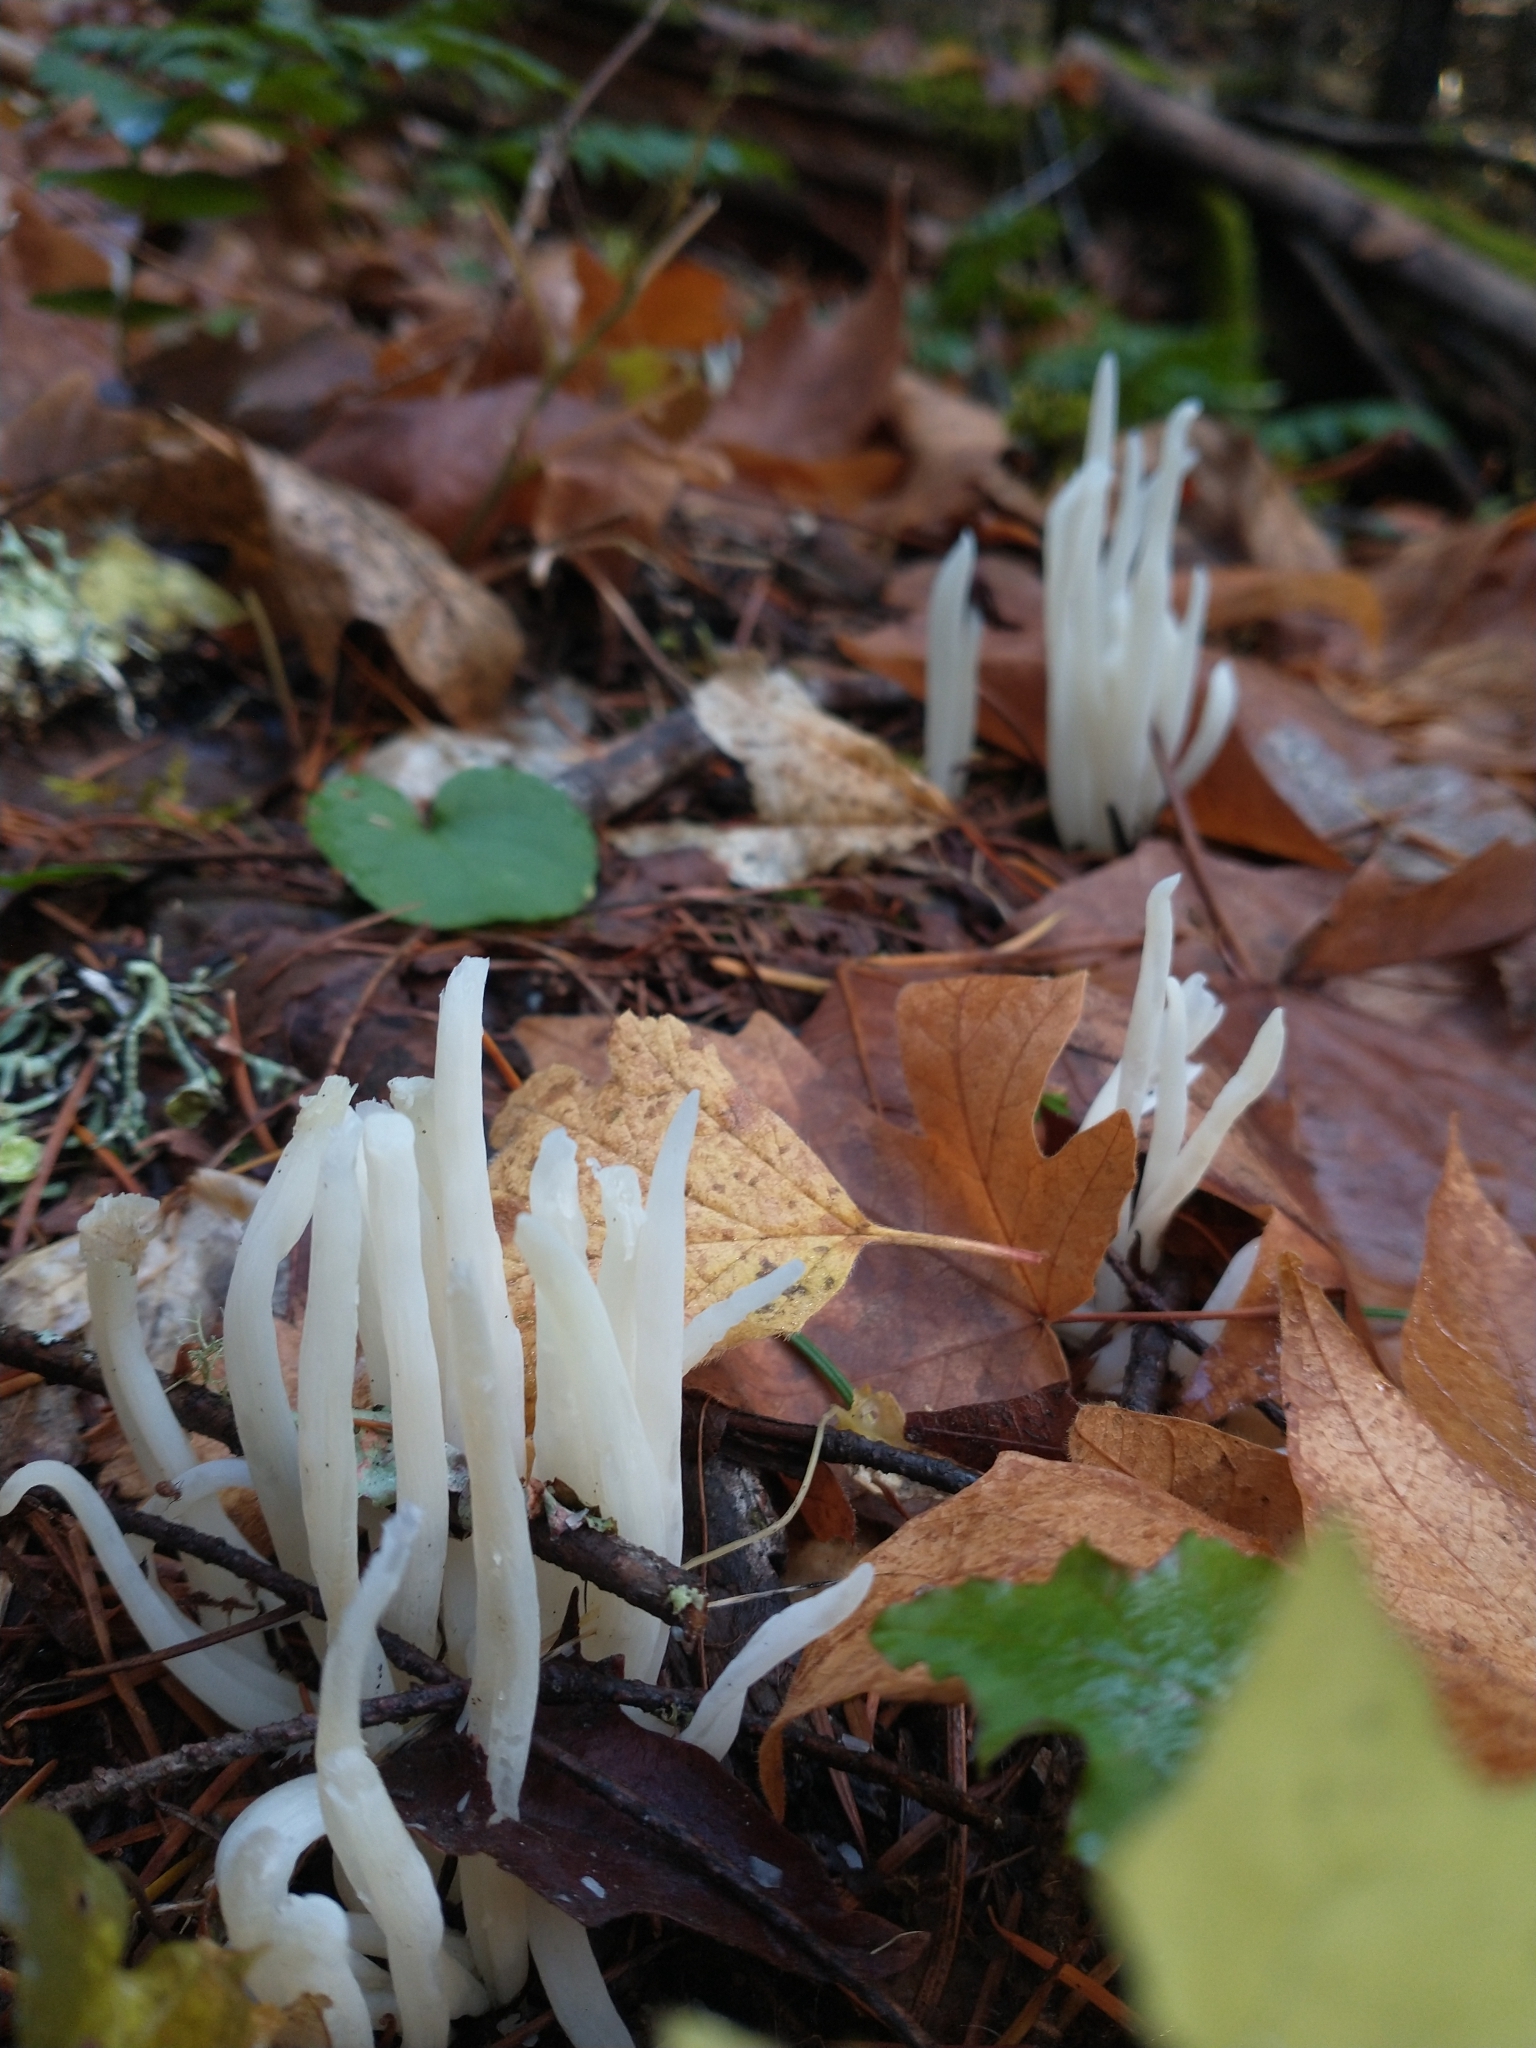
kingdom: Fungi
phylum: Basidiomycota
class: Agaricomycetes
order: Agaricales
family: Clavariaceae
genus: Clavaria
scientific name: Clavaria fragilis
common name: White spindles
